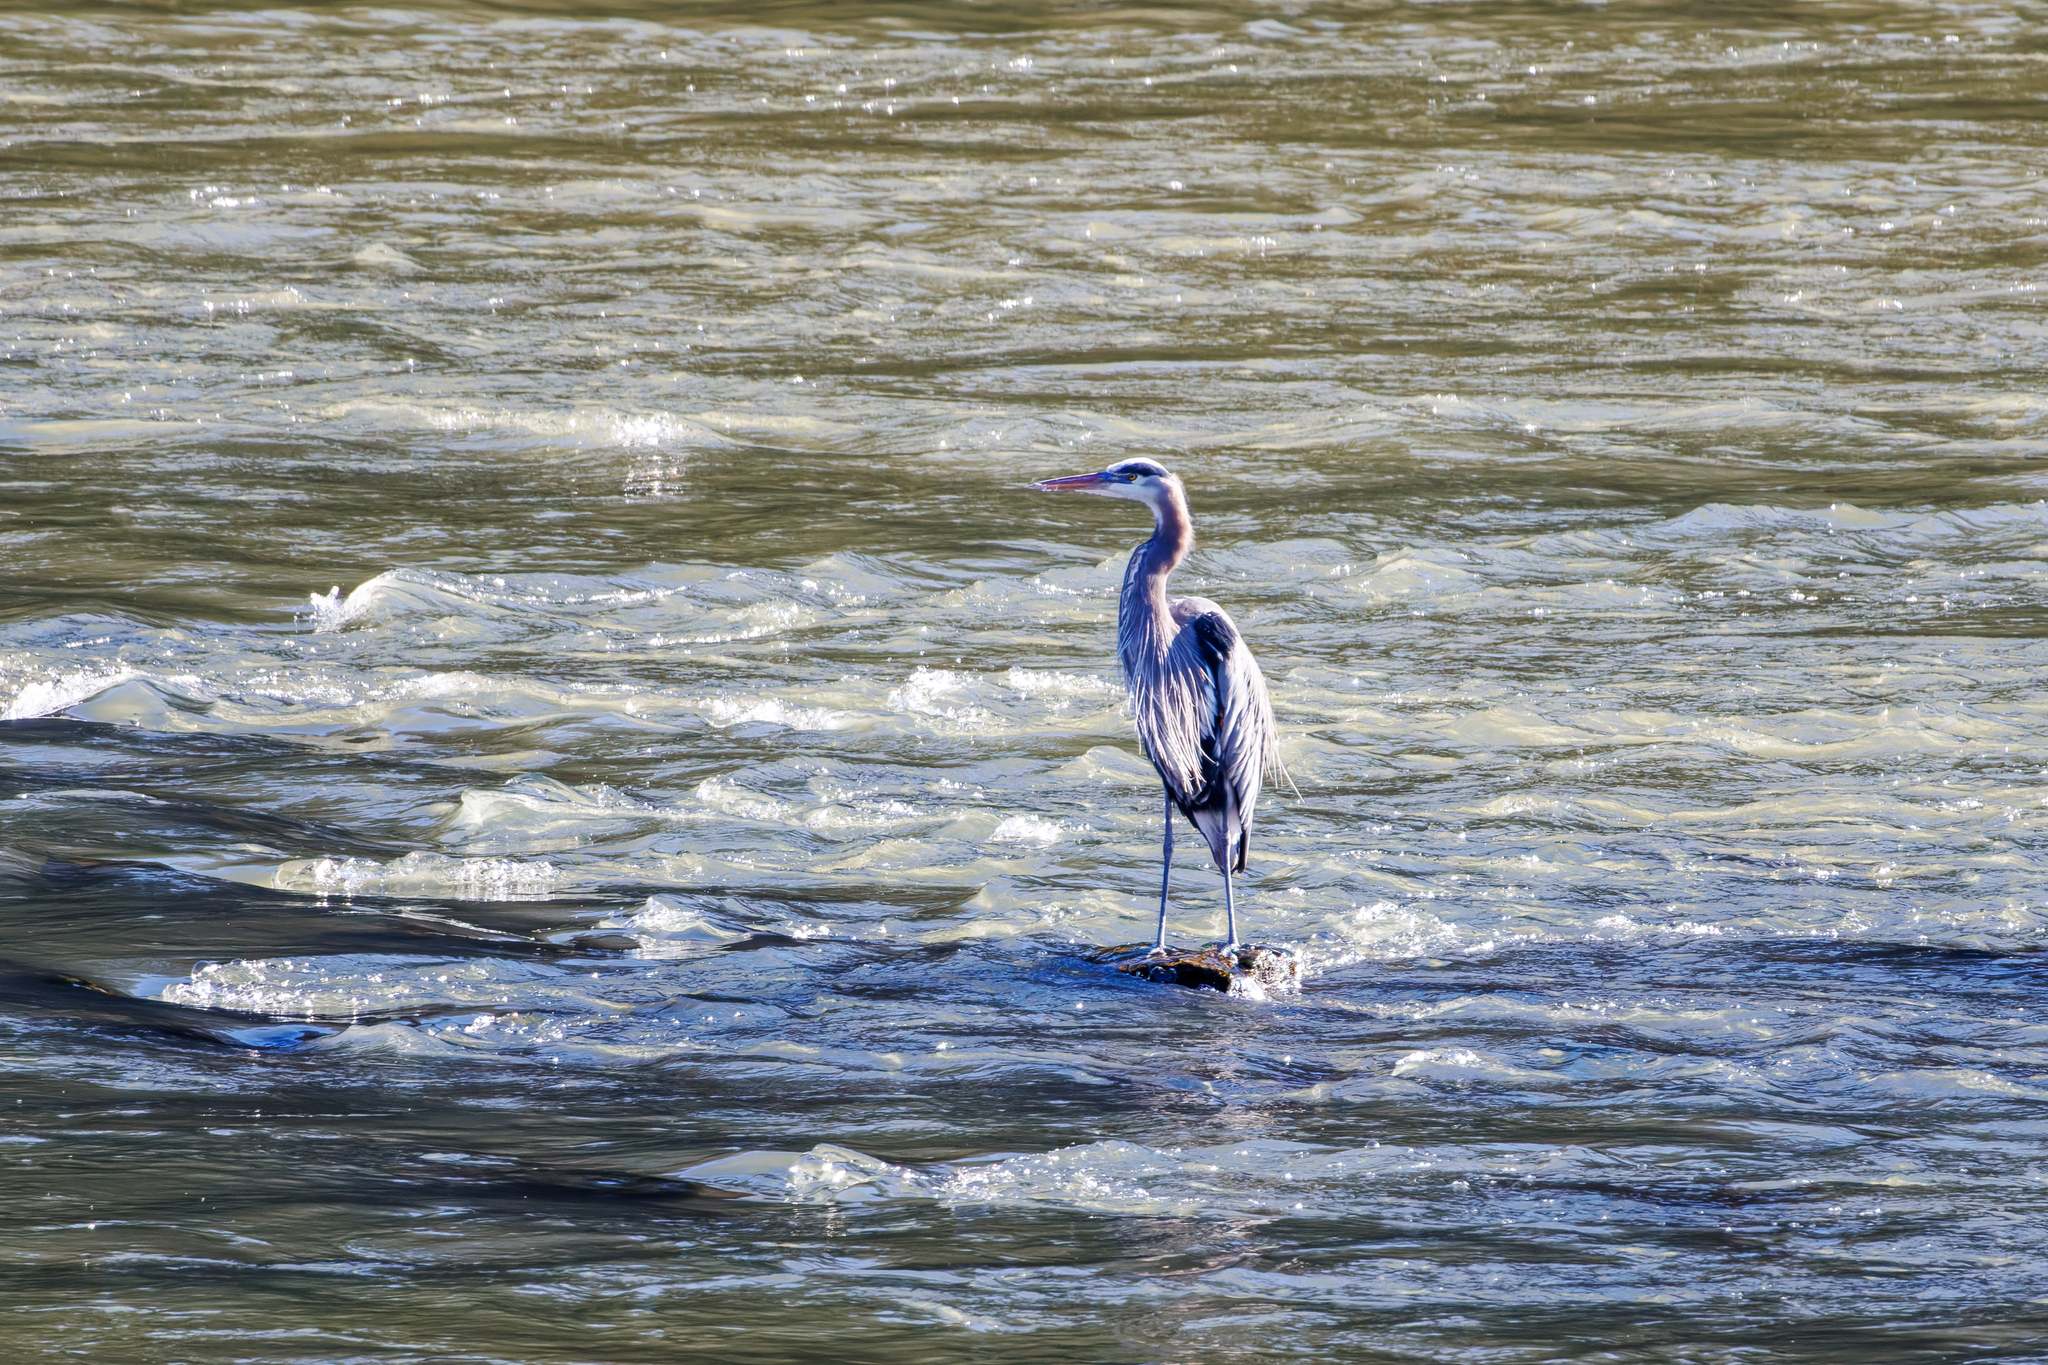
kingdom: Animalia
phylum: Chordata
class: Aves
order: Pelecaniformes
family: Ardeidae
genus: Ardea
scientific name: Ardea herodias
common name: Great blue heron
